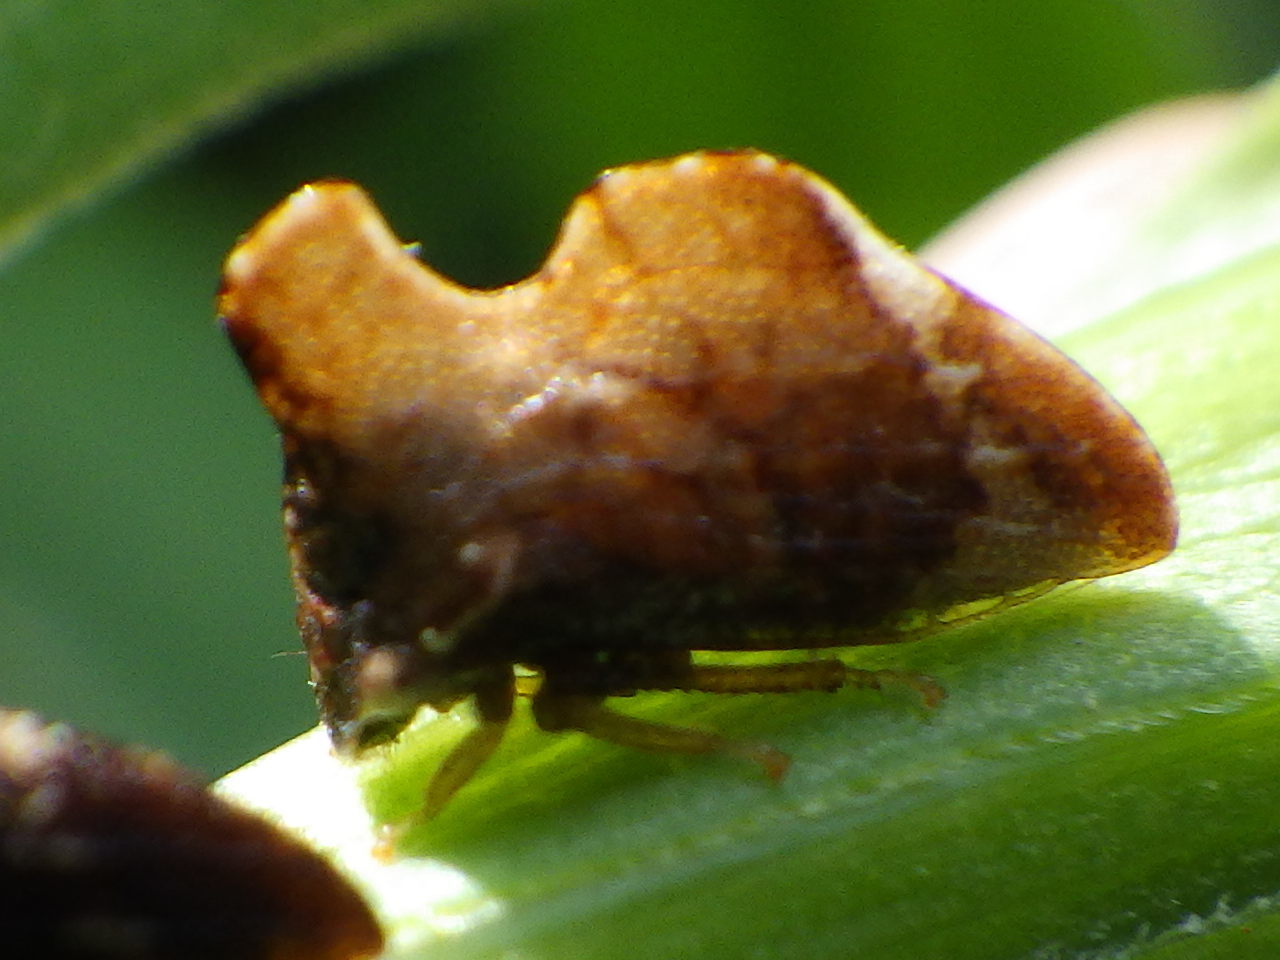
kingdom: Animalia
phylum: Arthropoda
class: Insecta
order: Hemiptera
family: Membracidae
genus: Entylia
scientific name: Entylia carinata
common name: Keeled treehopper
